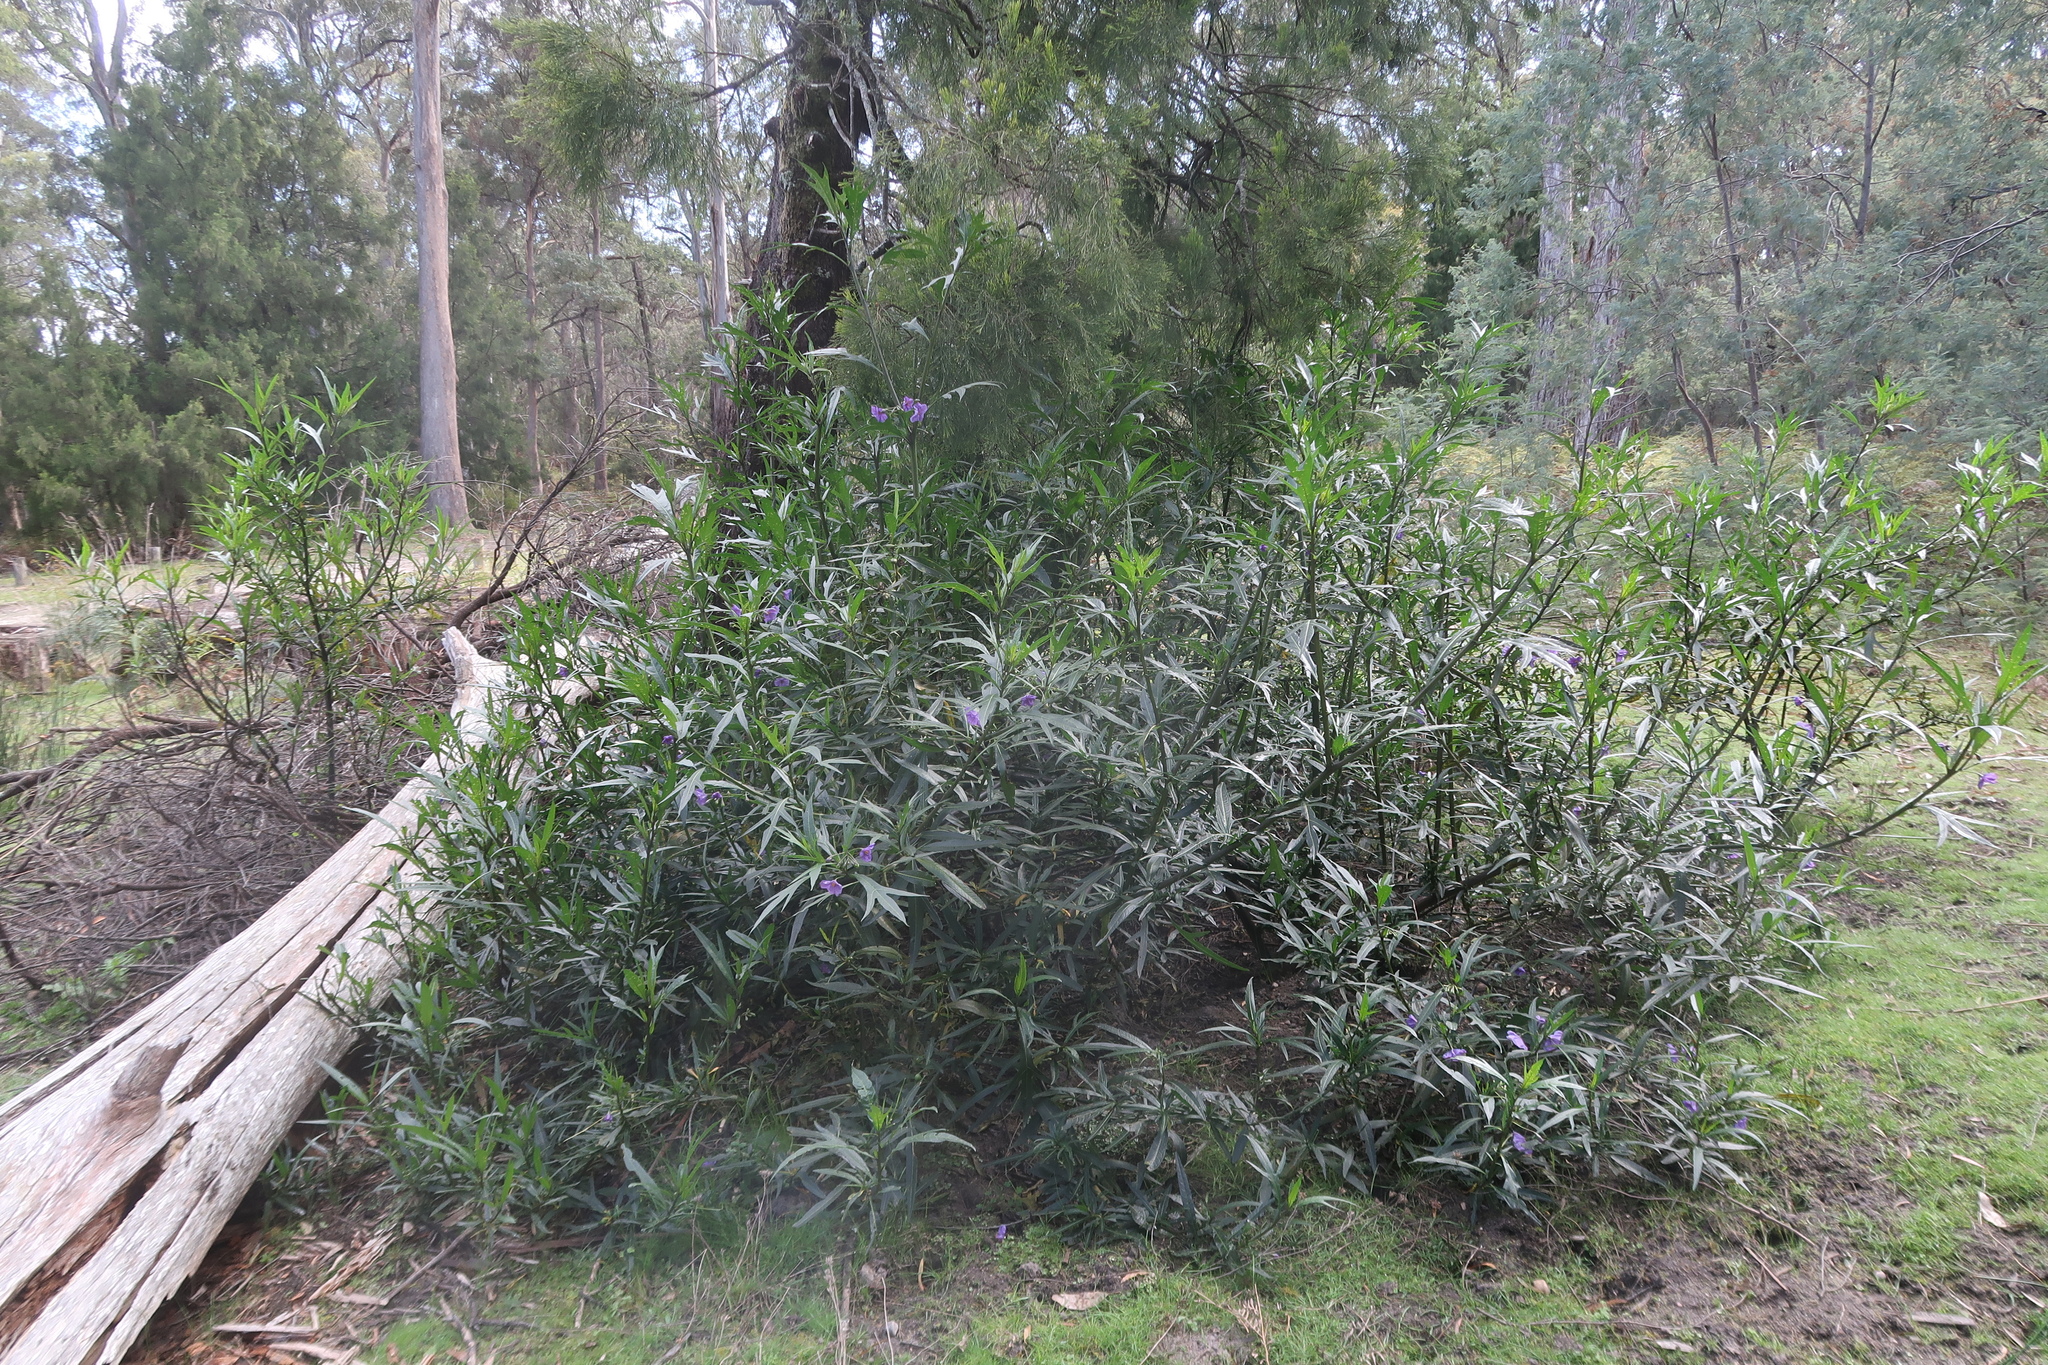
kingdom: Plantae
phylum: Tracheophyta
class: Magnoliopsida
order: Solanales
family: Solanaceae
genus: Solanum
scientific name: Solanum laciniatum
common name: Kangaroo-apple
